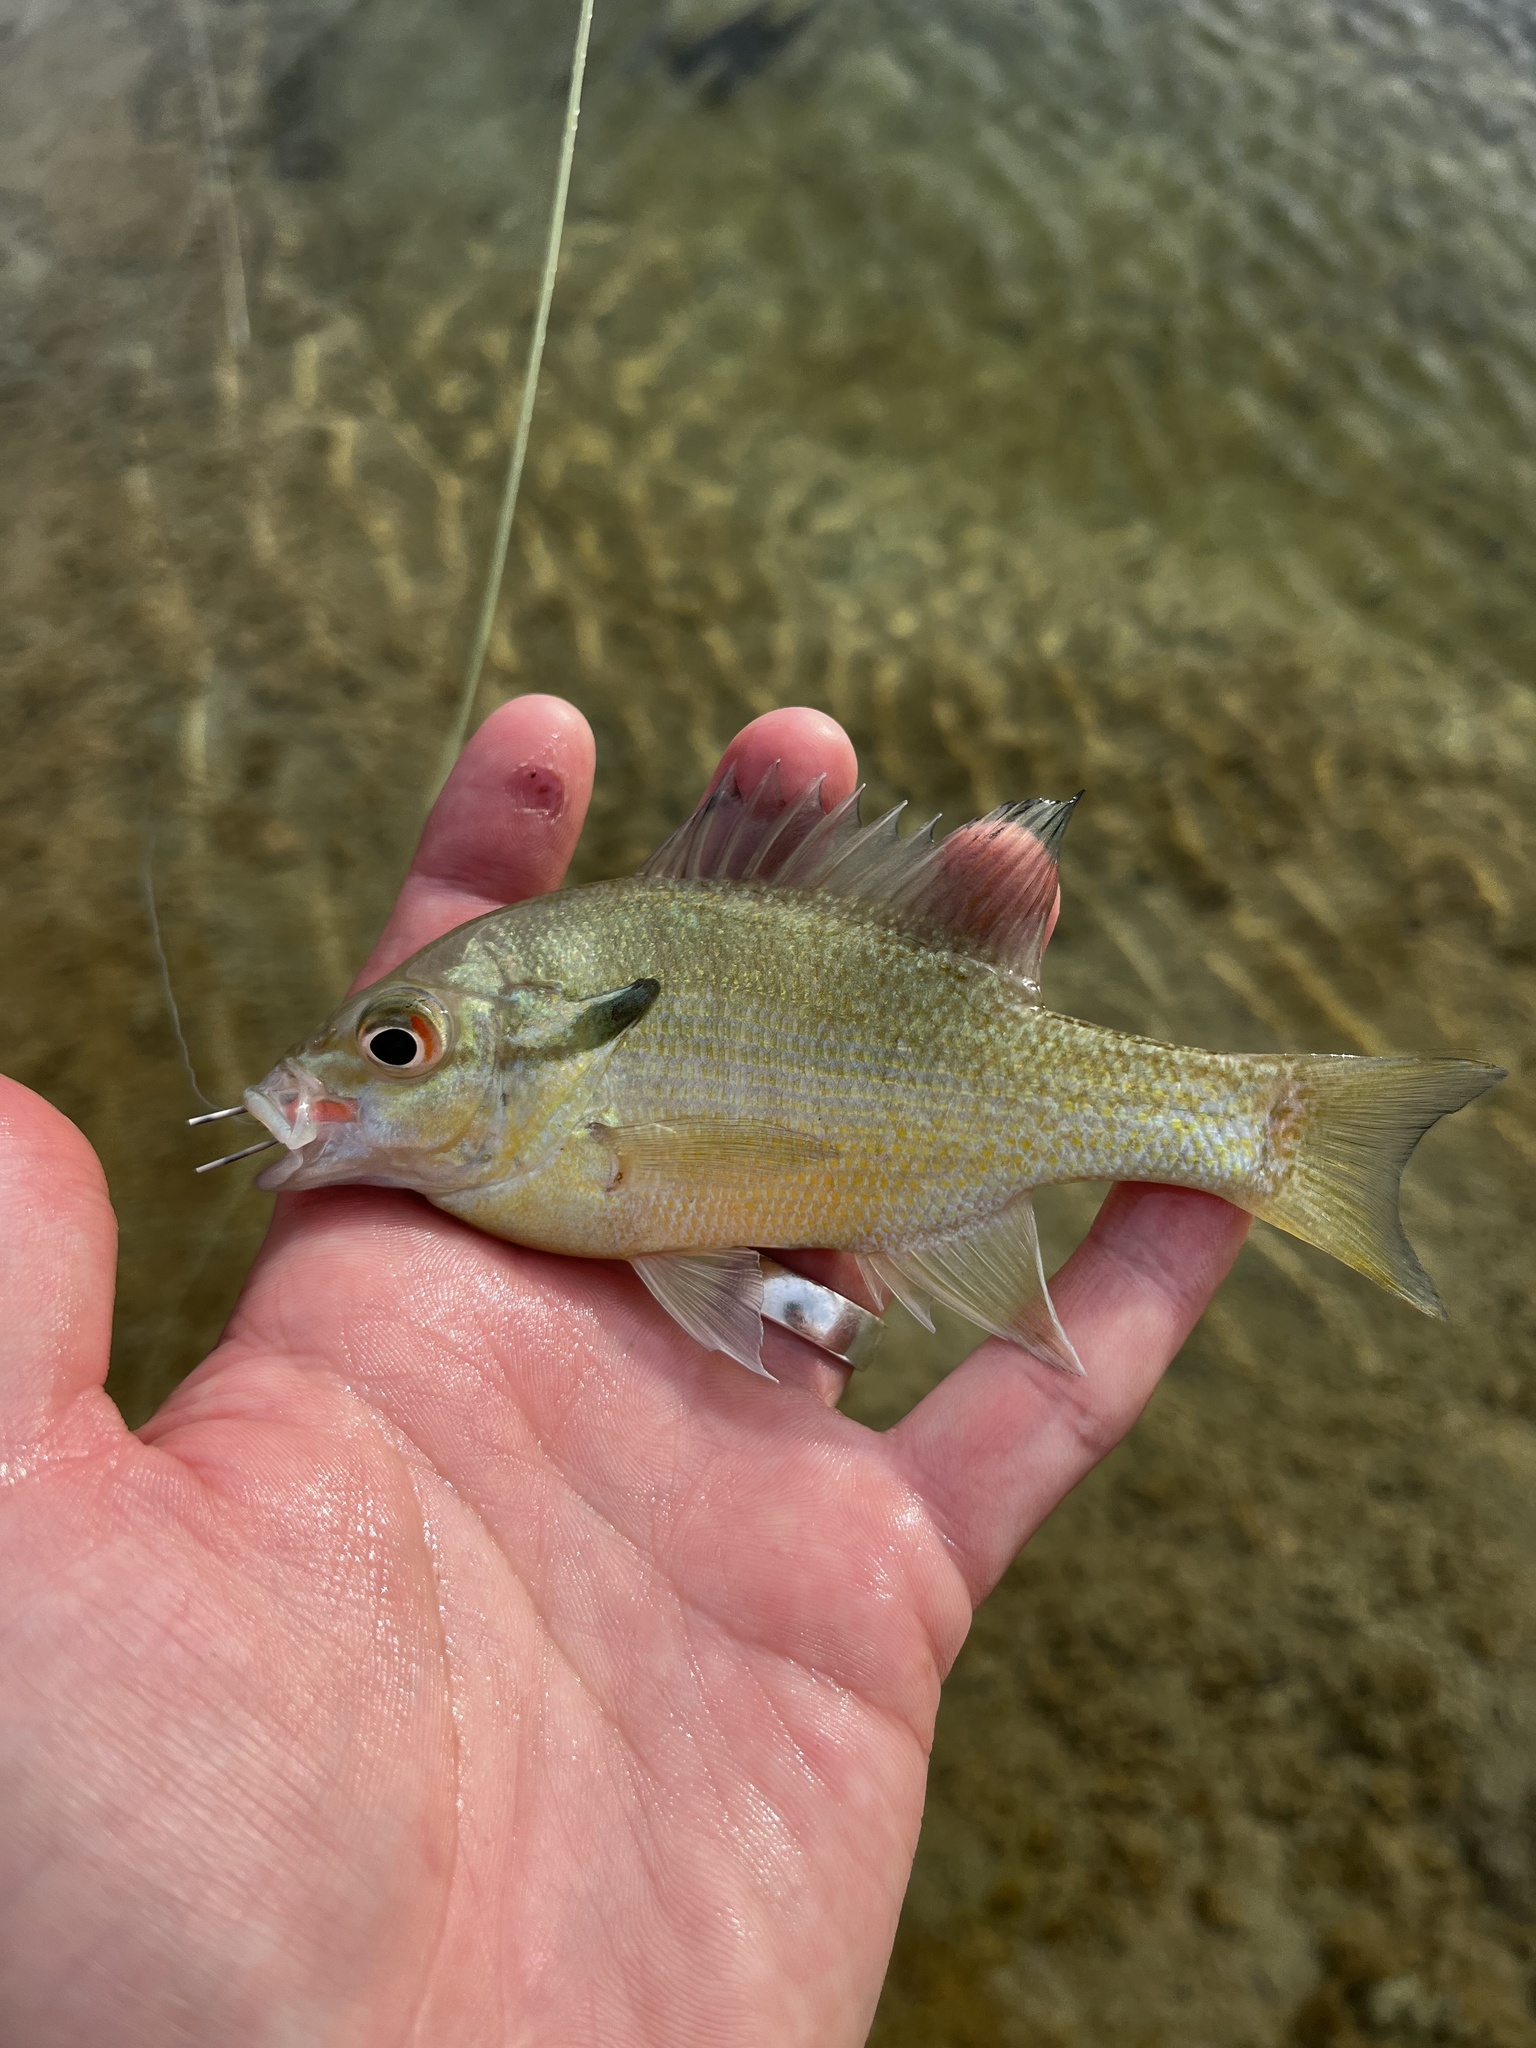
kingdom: Animalia
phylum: Chordata
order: Perciformes
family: Centrarchidae
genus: Lepomis
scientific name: Lepomis auritus
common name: Redbreast sunfish
